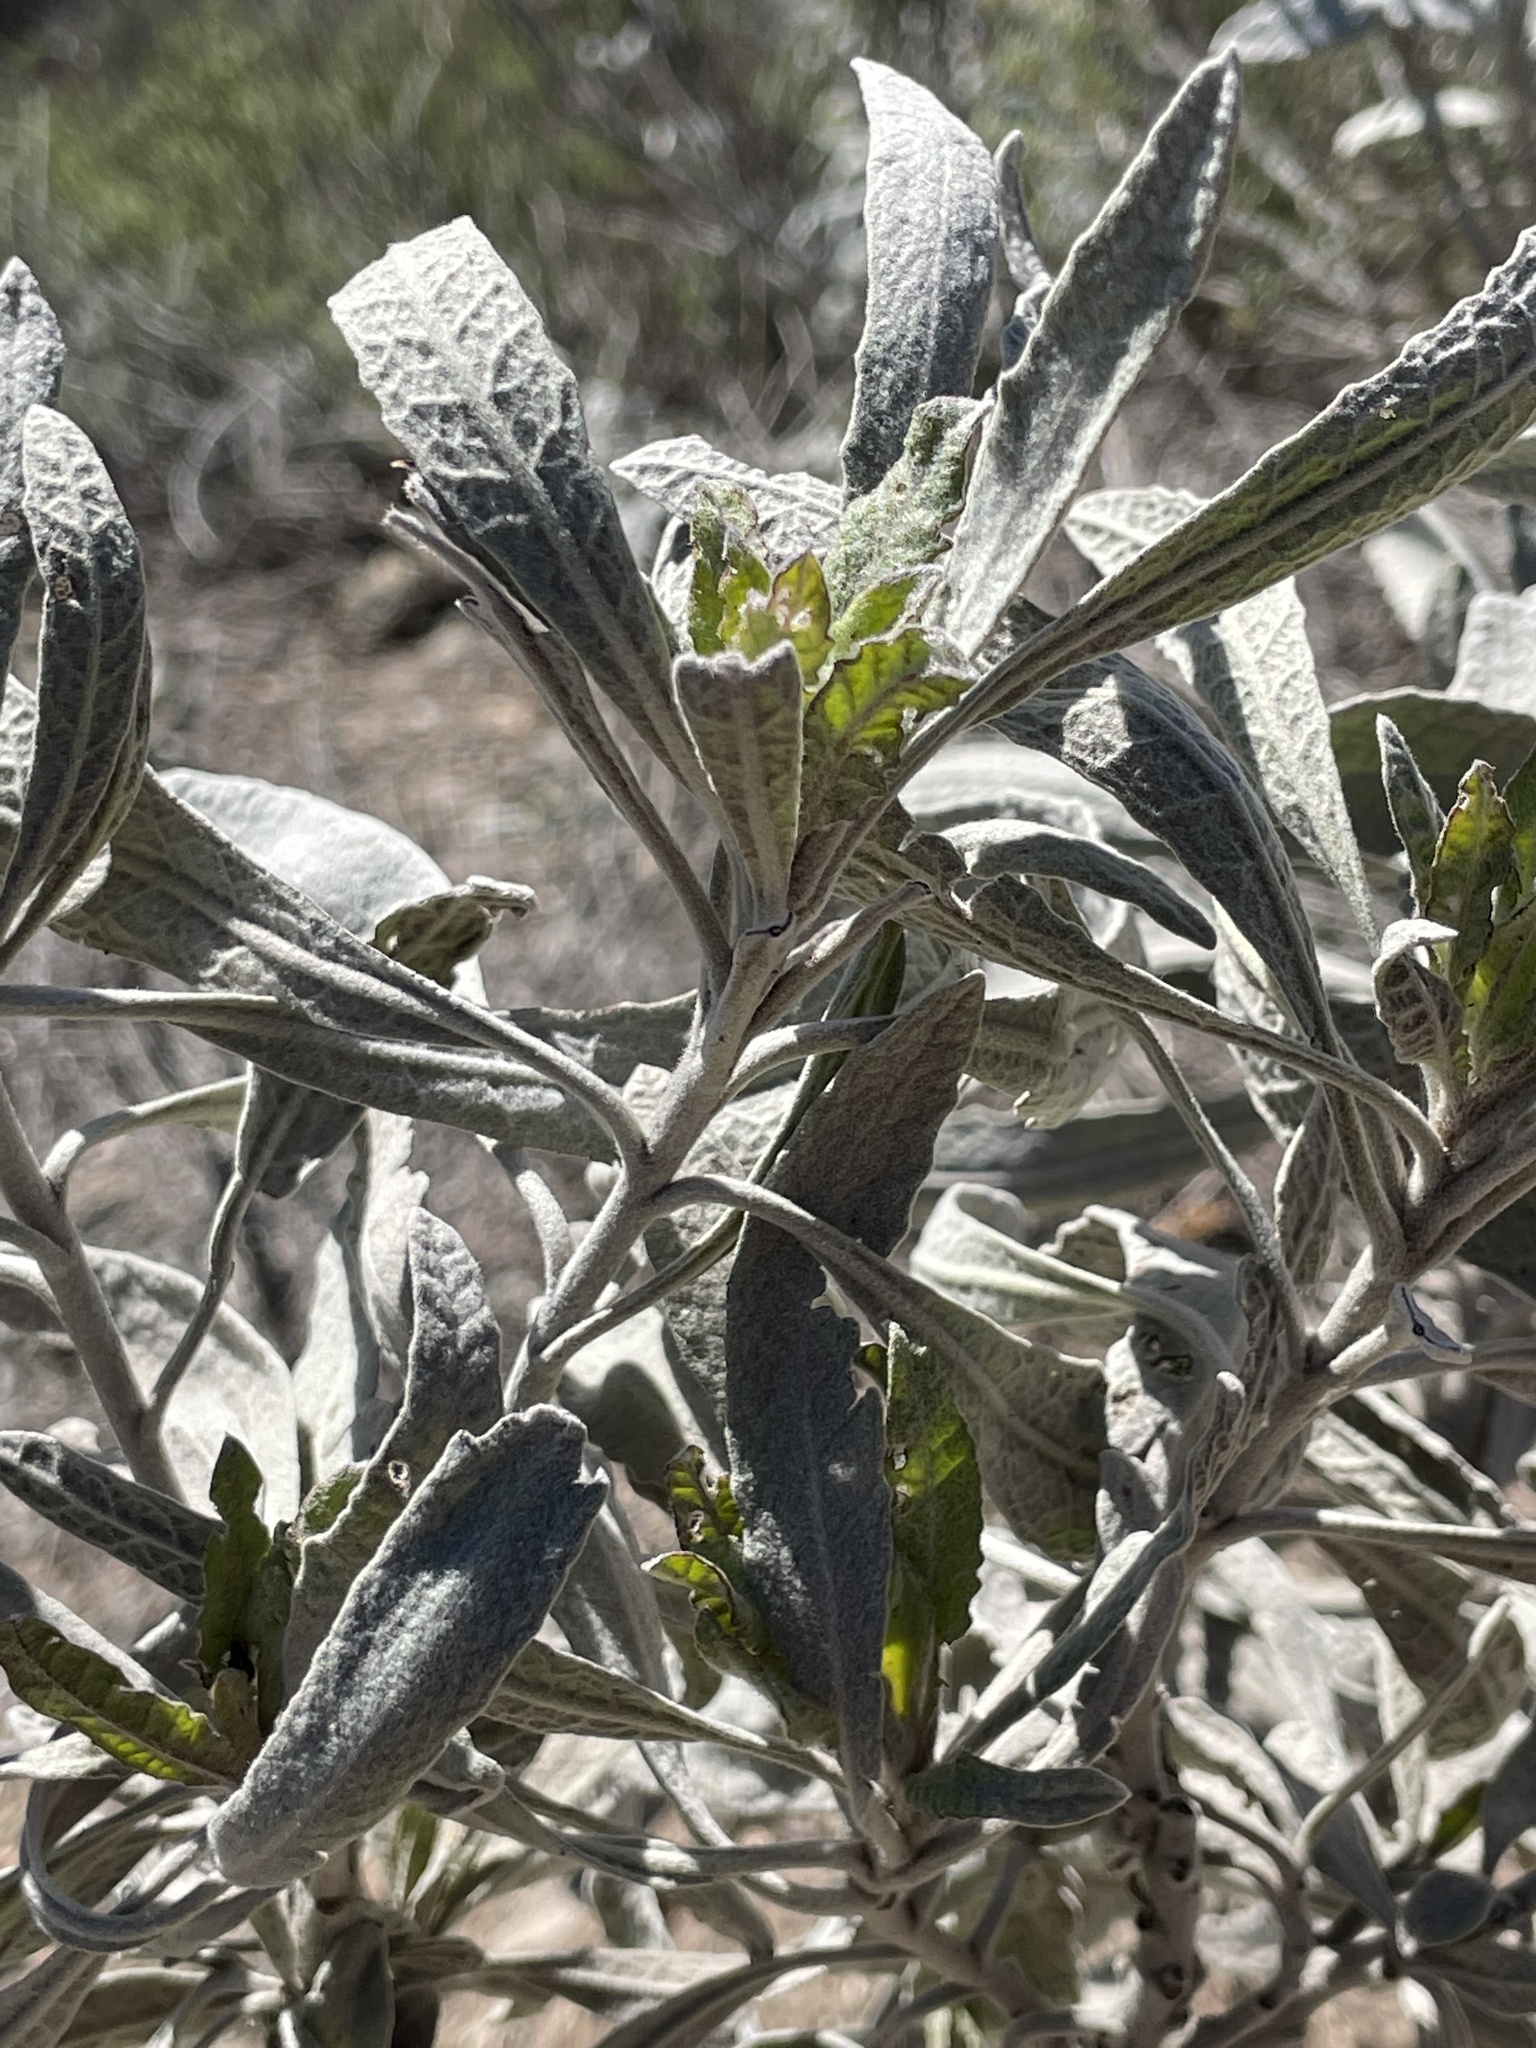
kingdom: Plantae
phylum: Tracheophyta
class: Magnoliopsida
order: Boraginales
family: Namaceae
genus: Eriodictyon
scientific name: Eriodictyon tomentosum
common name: Woolly yerba-santa
